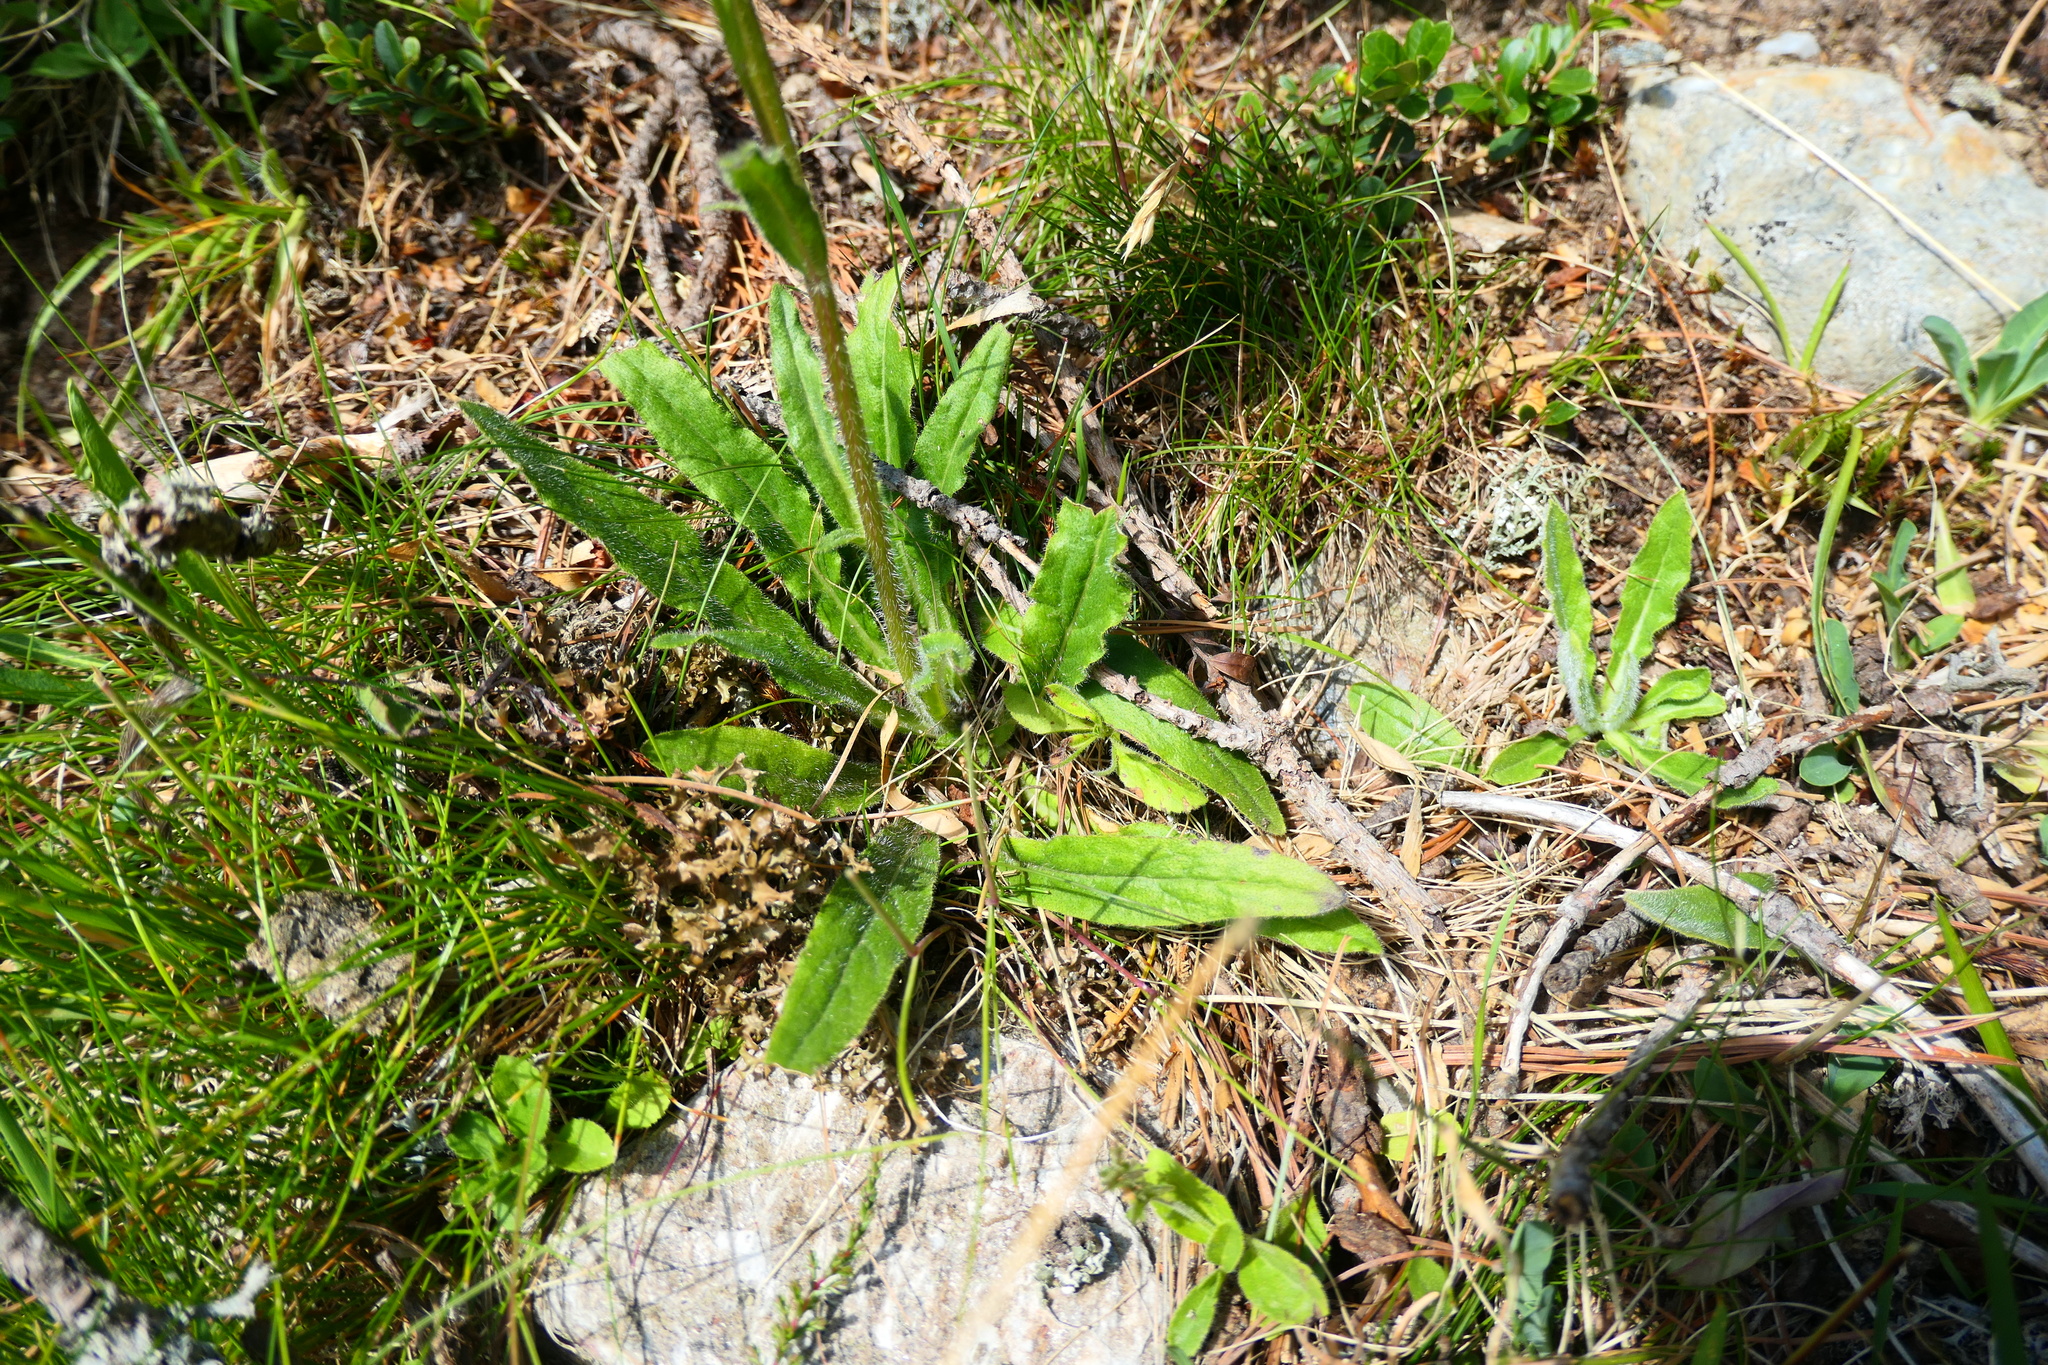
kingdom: Plantae
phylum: Tracheophyta
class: Magnoliopsida
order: Asterales
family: Campanulaceae
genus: Campanula
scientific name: Campanula barbata
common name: Bearded bellflower
